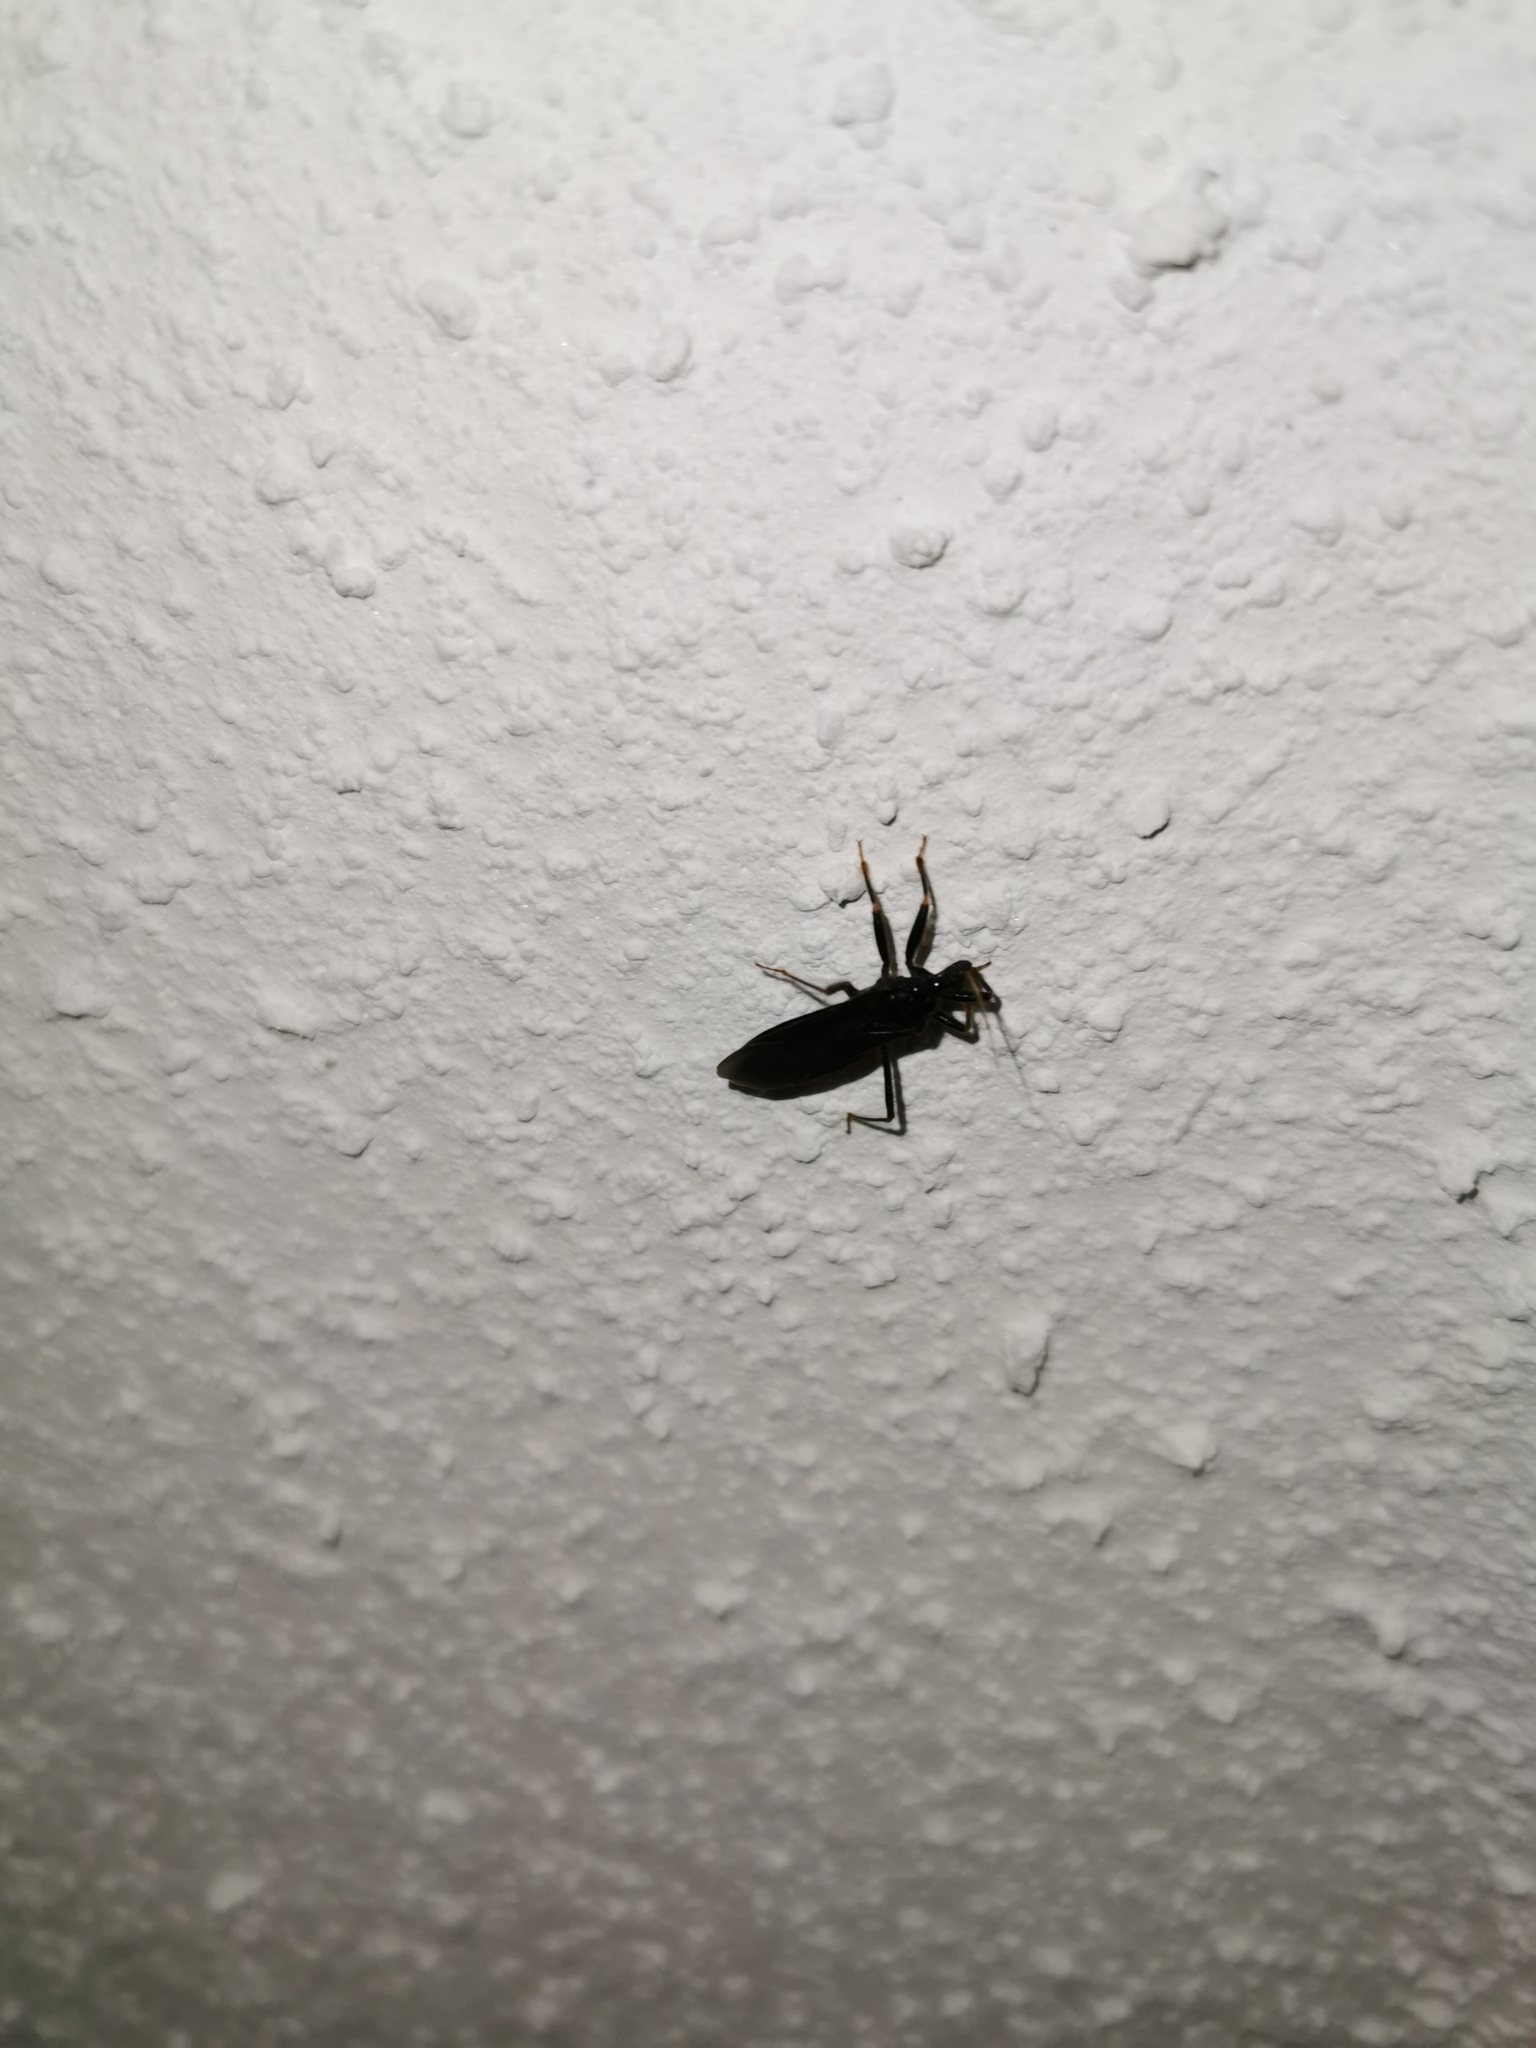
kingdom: Animalia
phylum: Arthropoda
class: Insecta
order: Hemiptera
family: Reduviidae
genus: Reduvius
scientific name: Reduvius personatus
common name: Masked hunter
